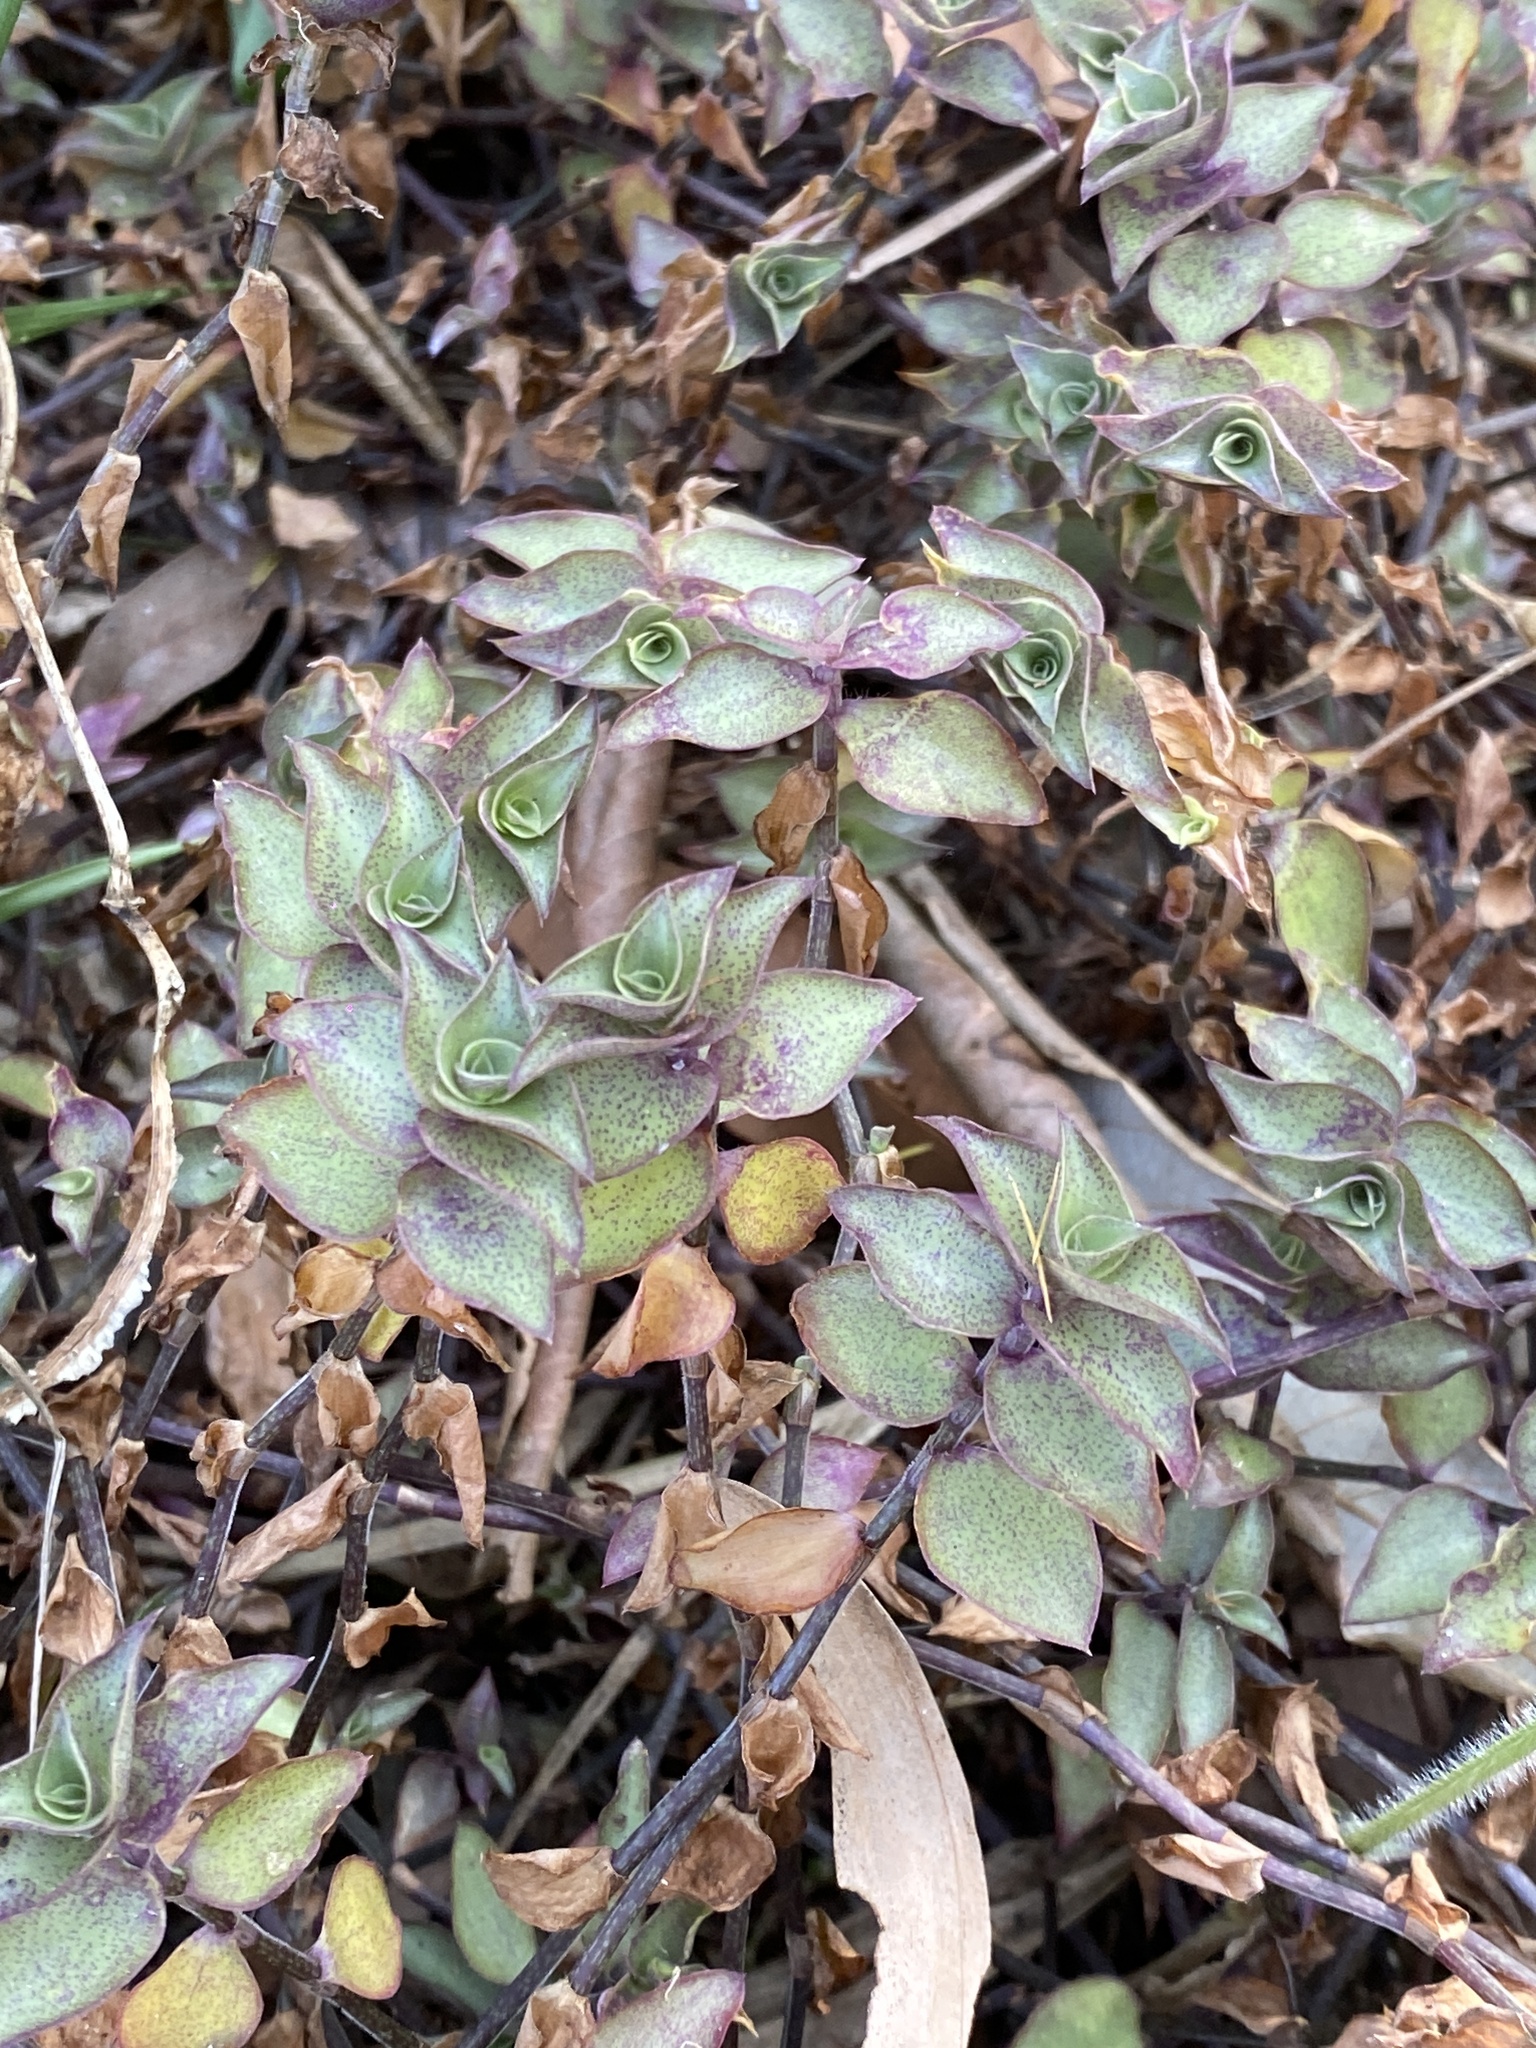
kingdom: Plantae
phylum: Tracheophyta
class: Liliopsida
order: Commelinales
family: Commelinaceae
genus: Callisia
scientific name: Callisia repens
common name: Creeping inchplant
